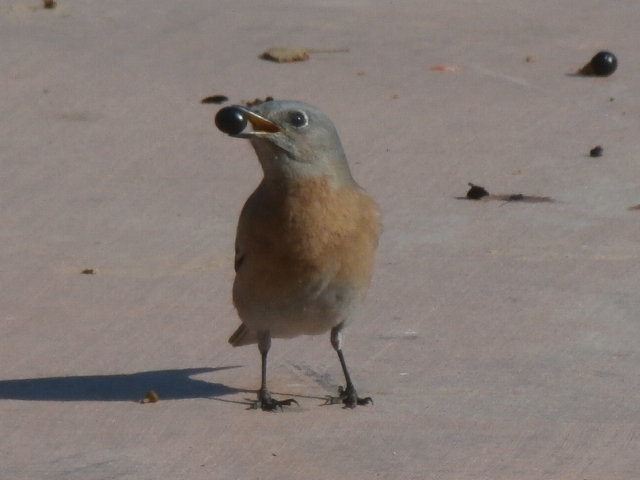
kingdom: Animalia
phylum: Chordata
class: Aves
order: Passeriformes
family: Turdidae
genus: Sialia
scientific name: Sialia mexicana
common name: Western bluebird
